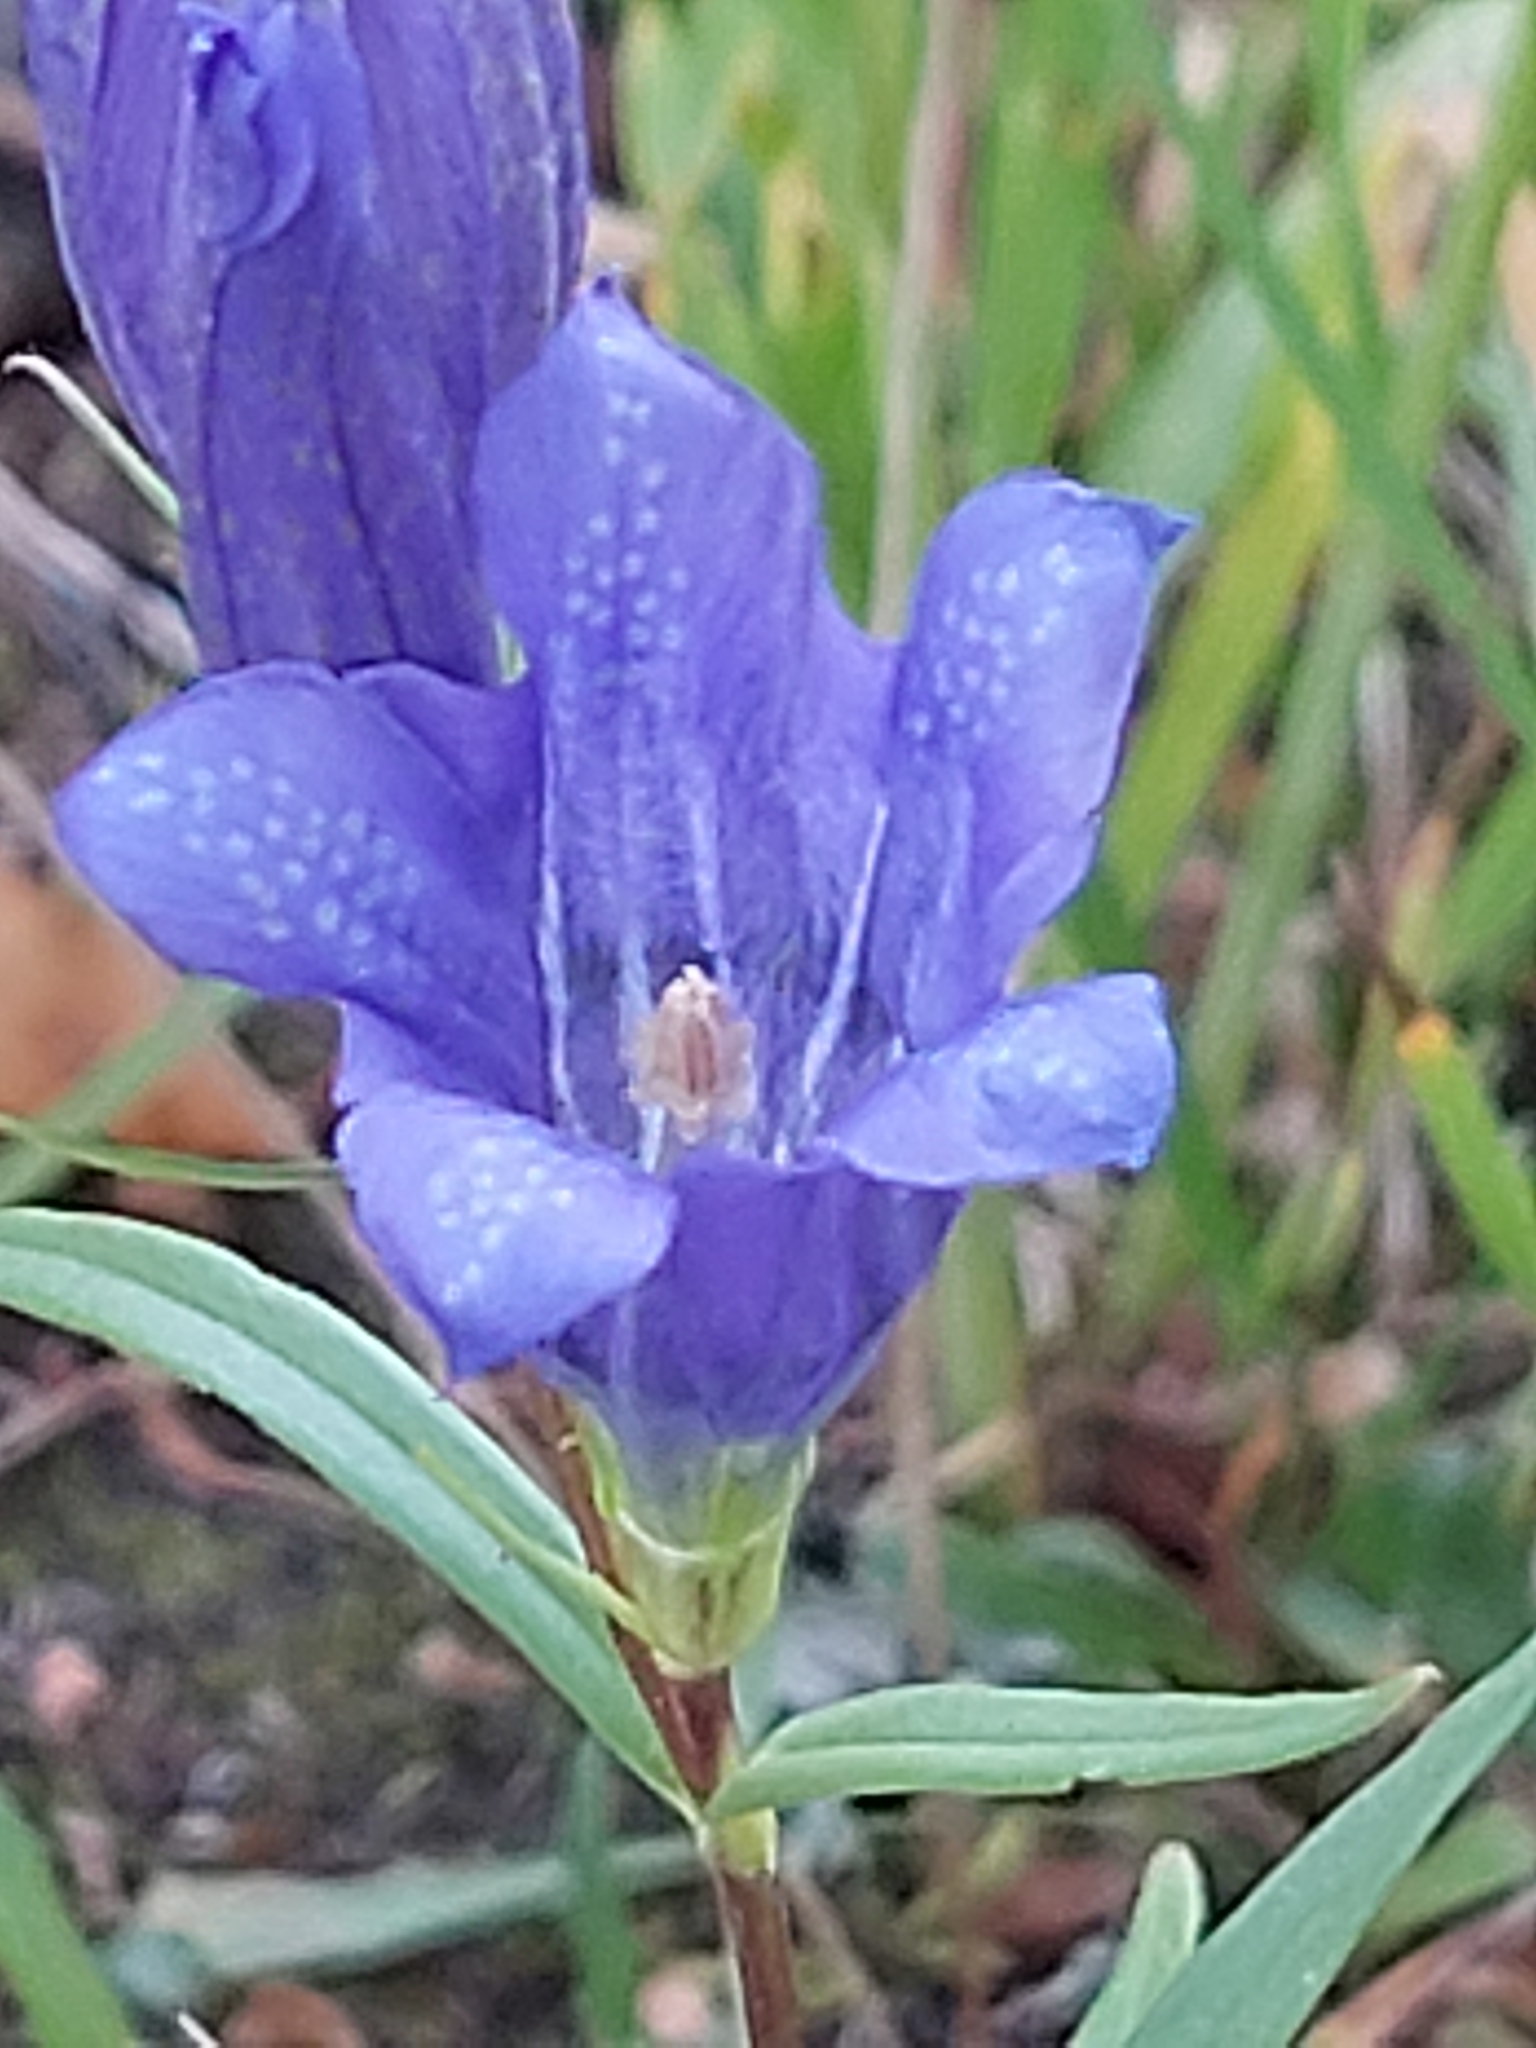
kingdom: Plantae
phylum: Tracheophyta
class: Magnoliopsida
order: Gentianales
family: Gentianaceae
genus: Gentiana
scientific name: Gentiana pneumonanthe
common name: Marsh gentian
